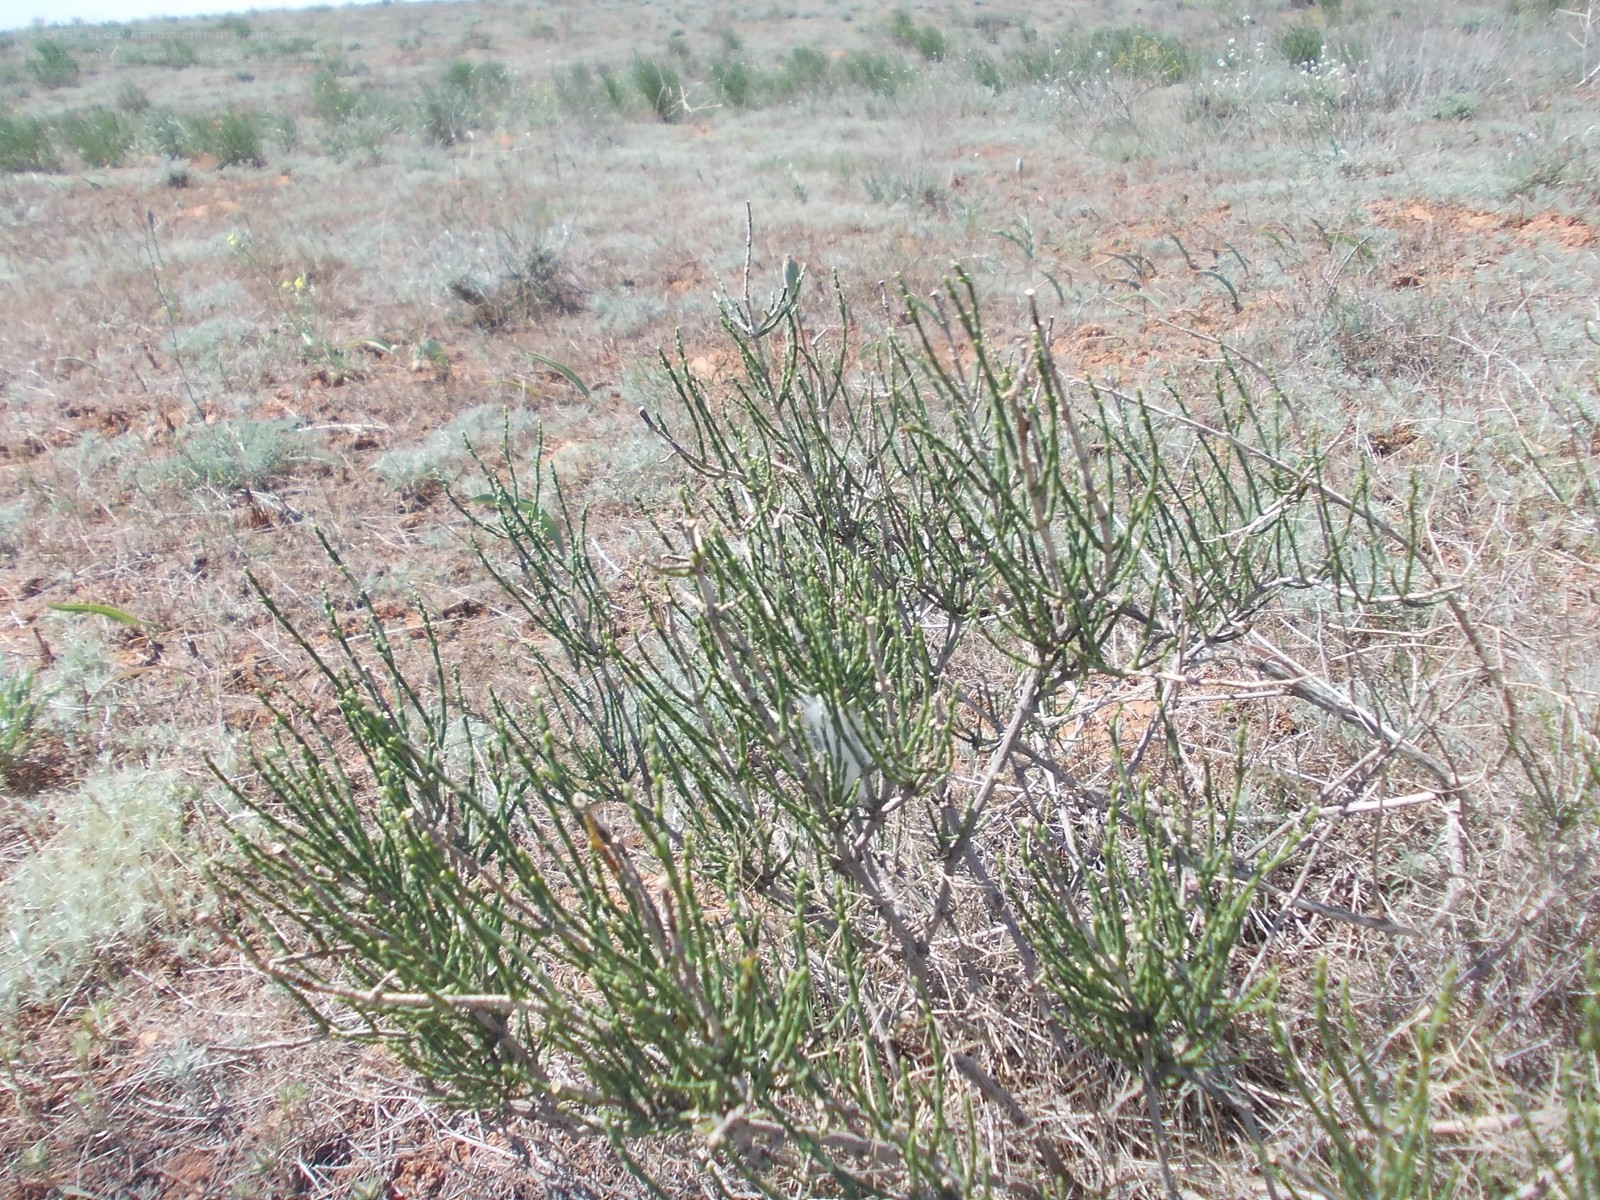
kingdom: Plantae
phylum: Tracheophyta
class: Magnoliopsida
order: Caryophyllales
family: Amaranthaceae
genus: Anabasis
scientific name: Anabasis aphylla
